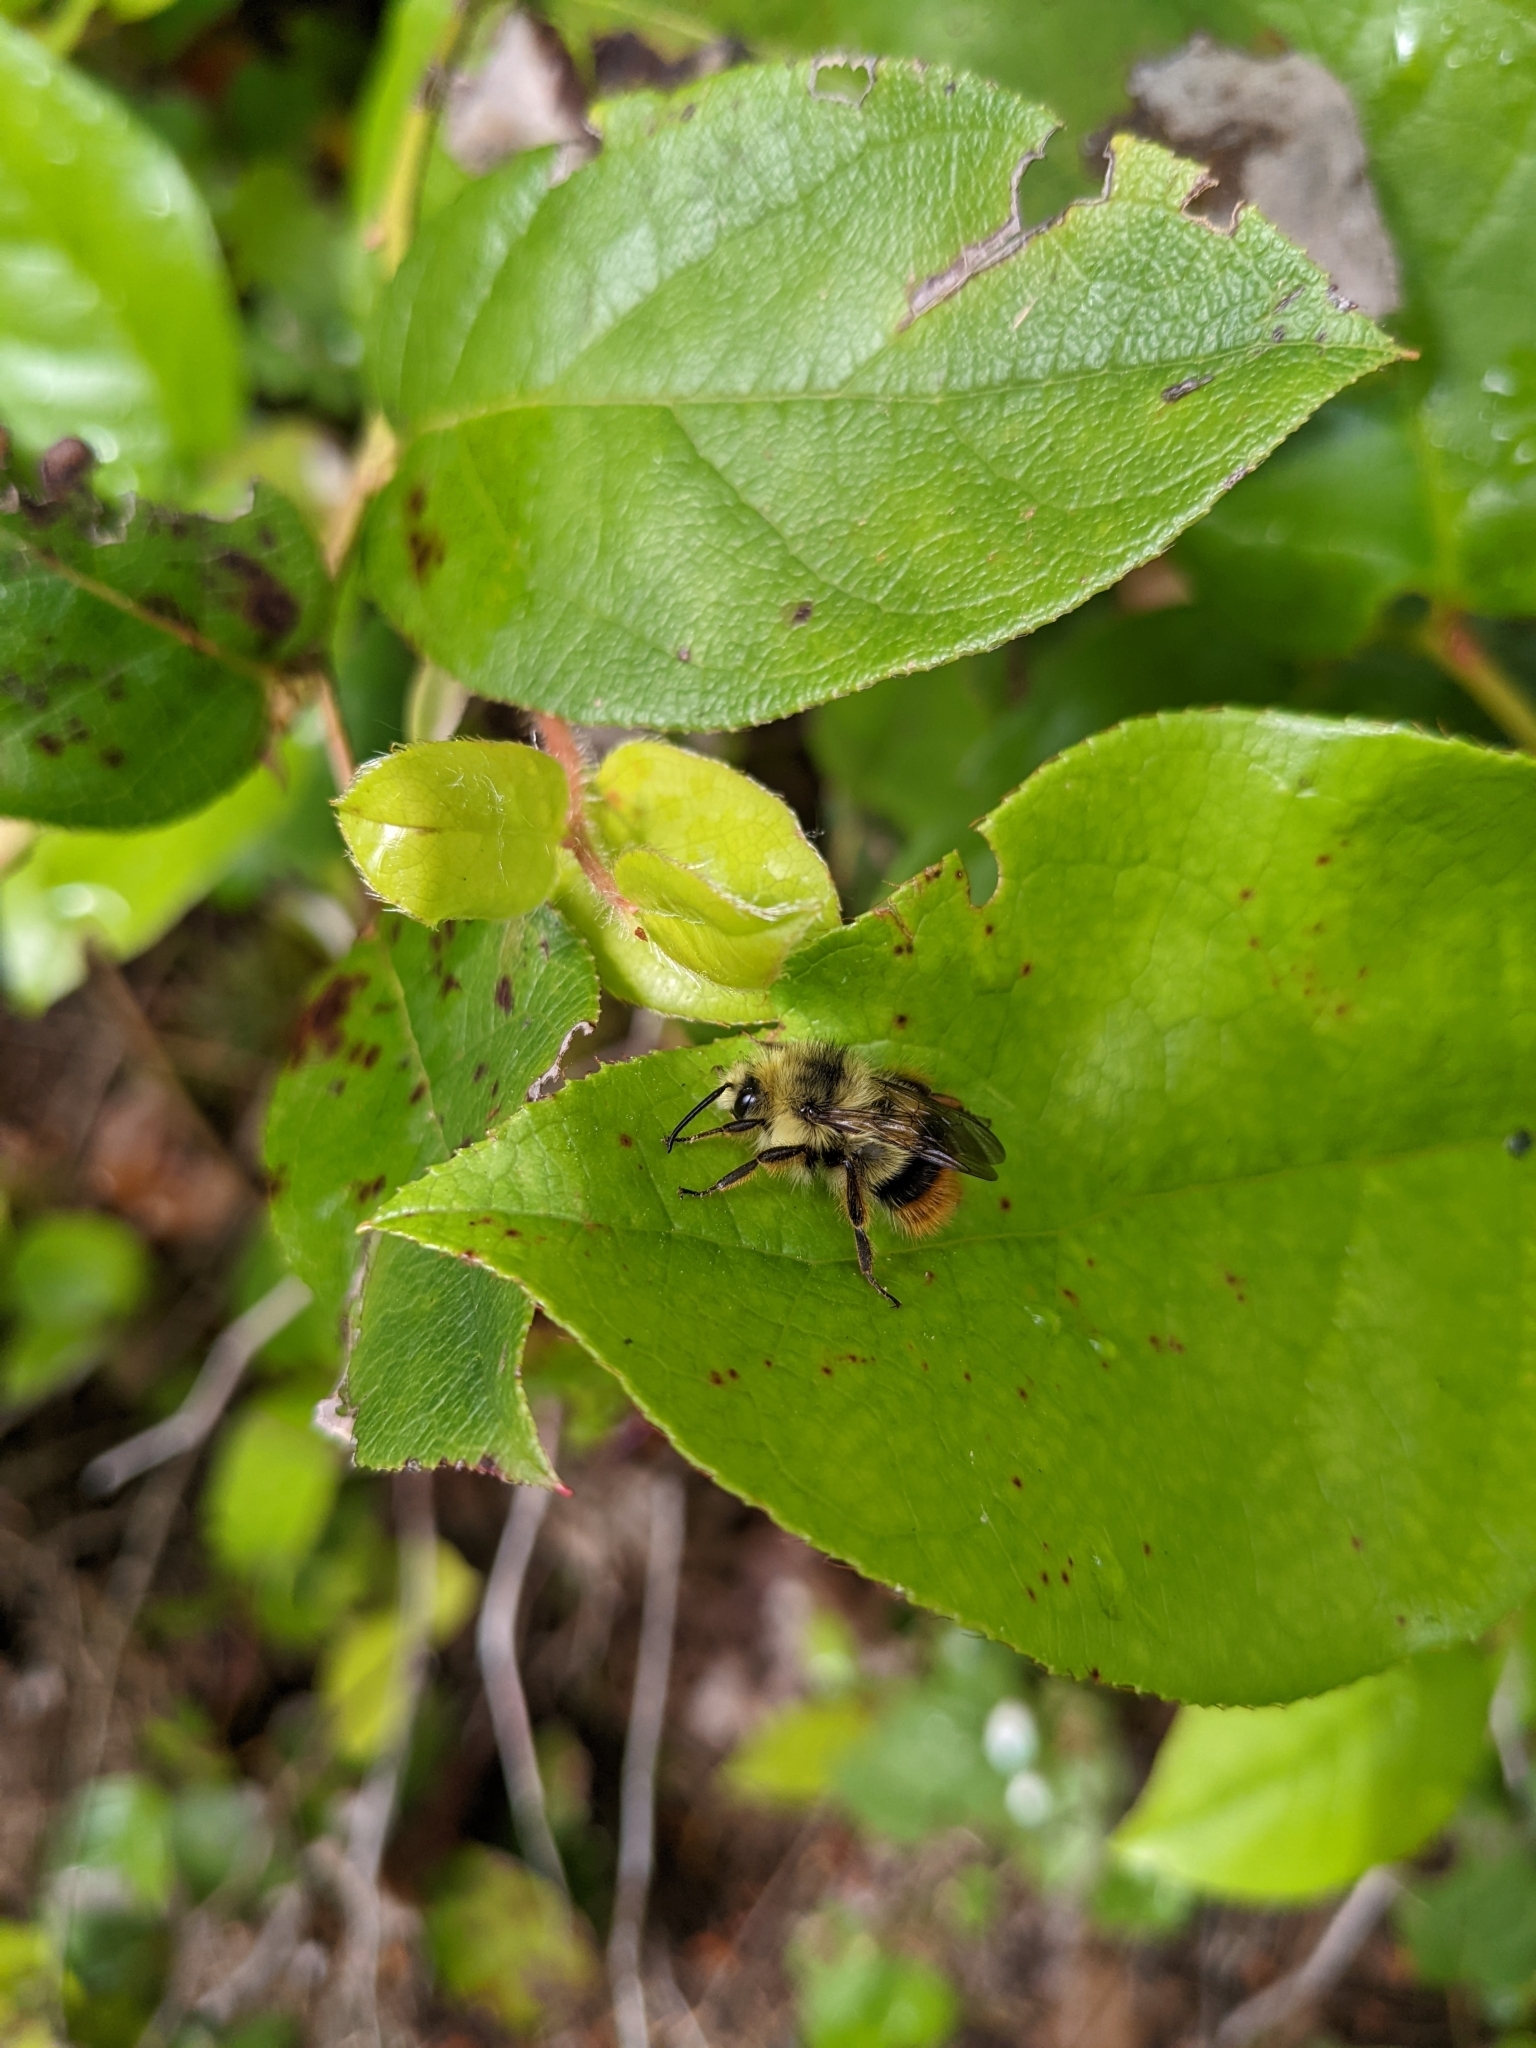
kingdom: Animalia
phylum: Arthropoda
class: Insecta
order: Hymenoptera
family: Apidae
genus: Bombus
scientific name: Bombus mixtus
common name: Fuzzy-horned bumble bee
